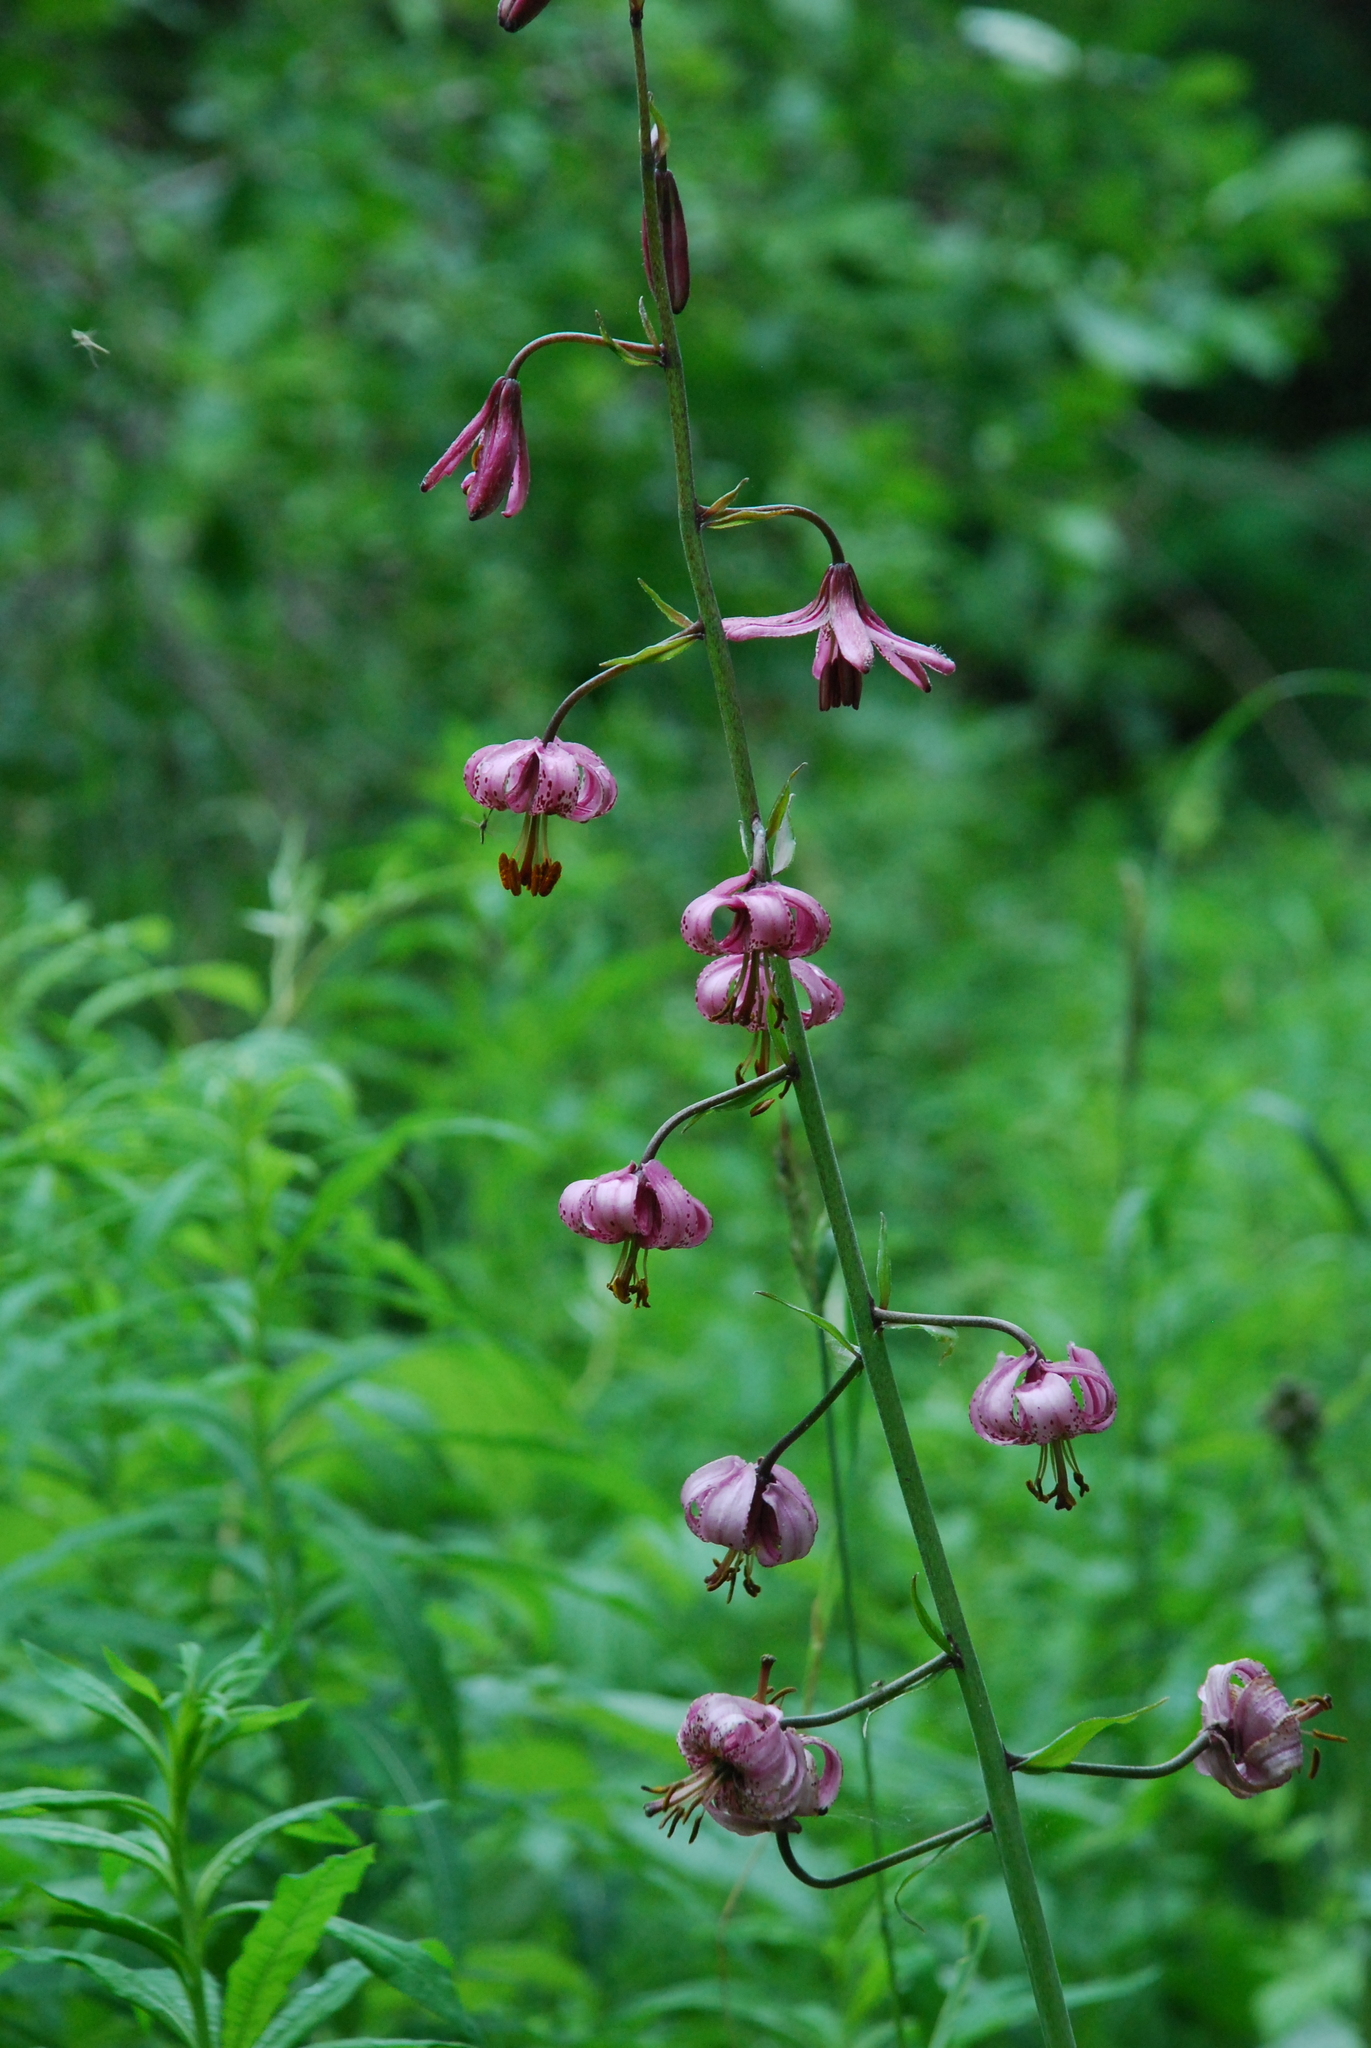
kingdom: Plantae
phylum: Tracheophyta
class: Liliopsida
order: Liliales
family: Liliaceae
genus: Lilium
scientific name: Lilium martagon
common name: Martagon lily
